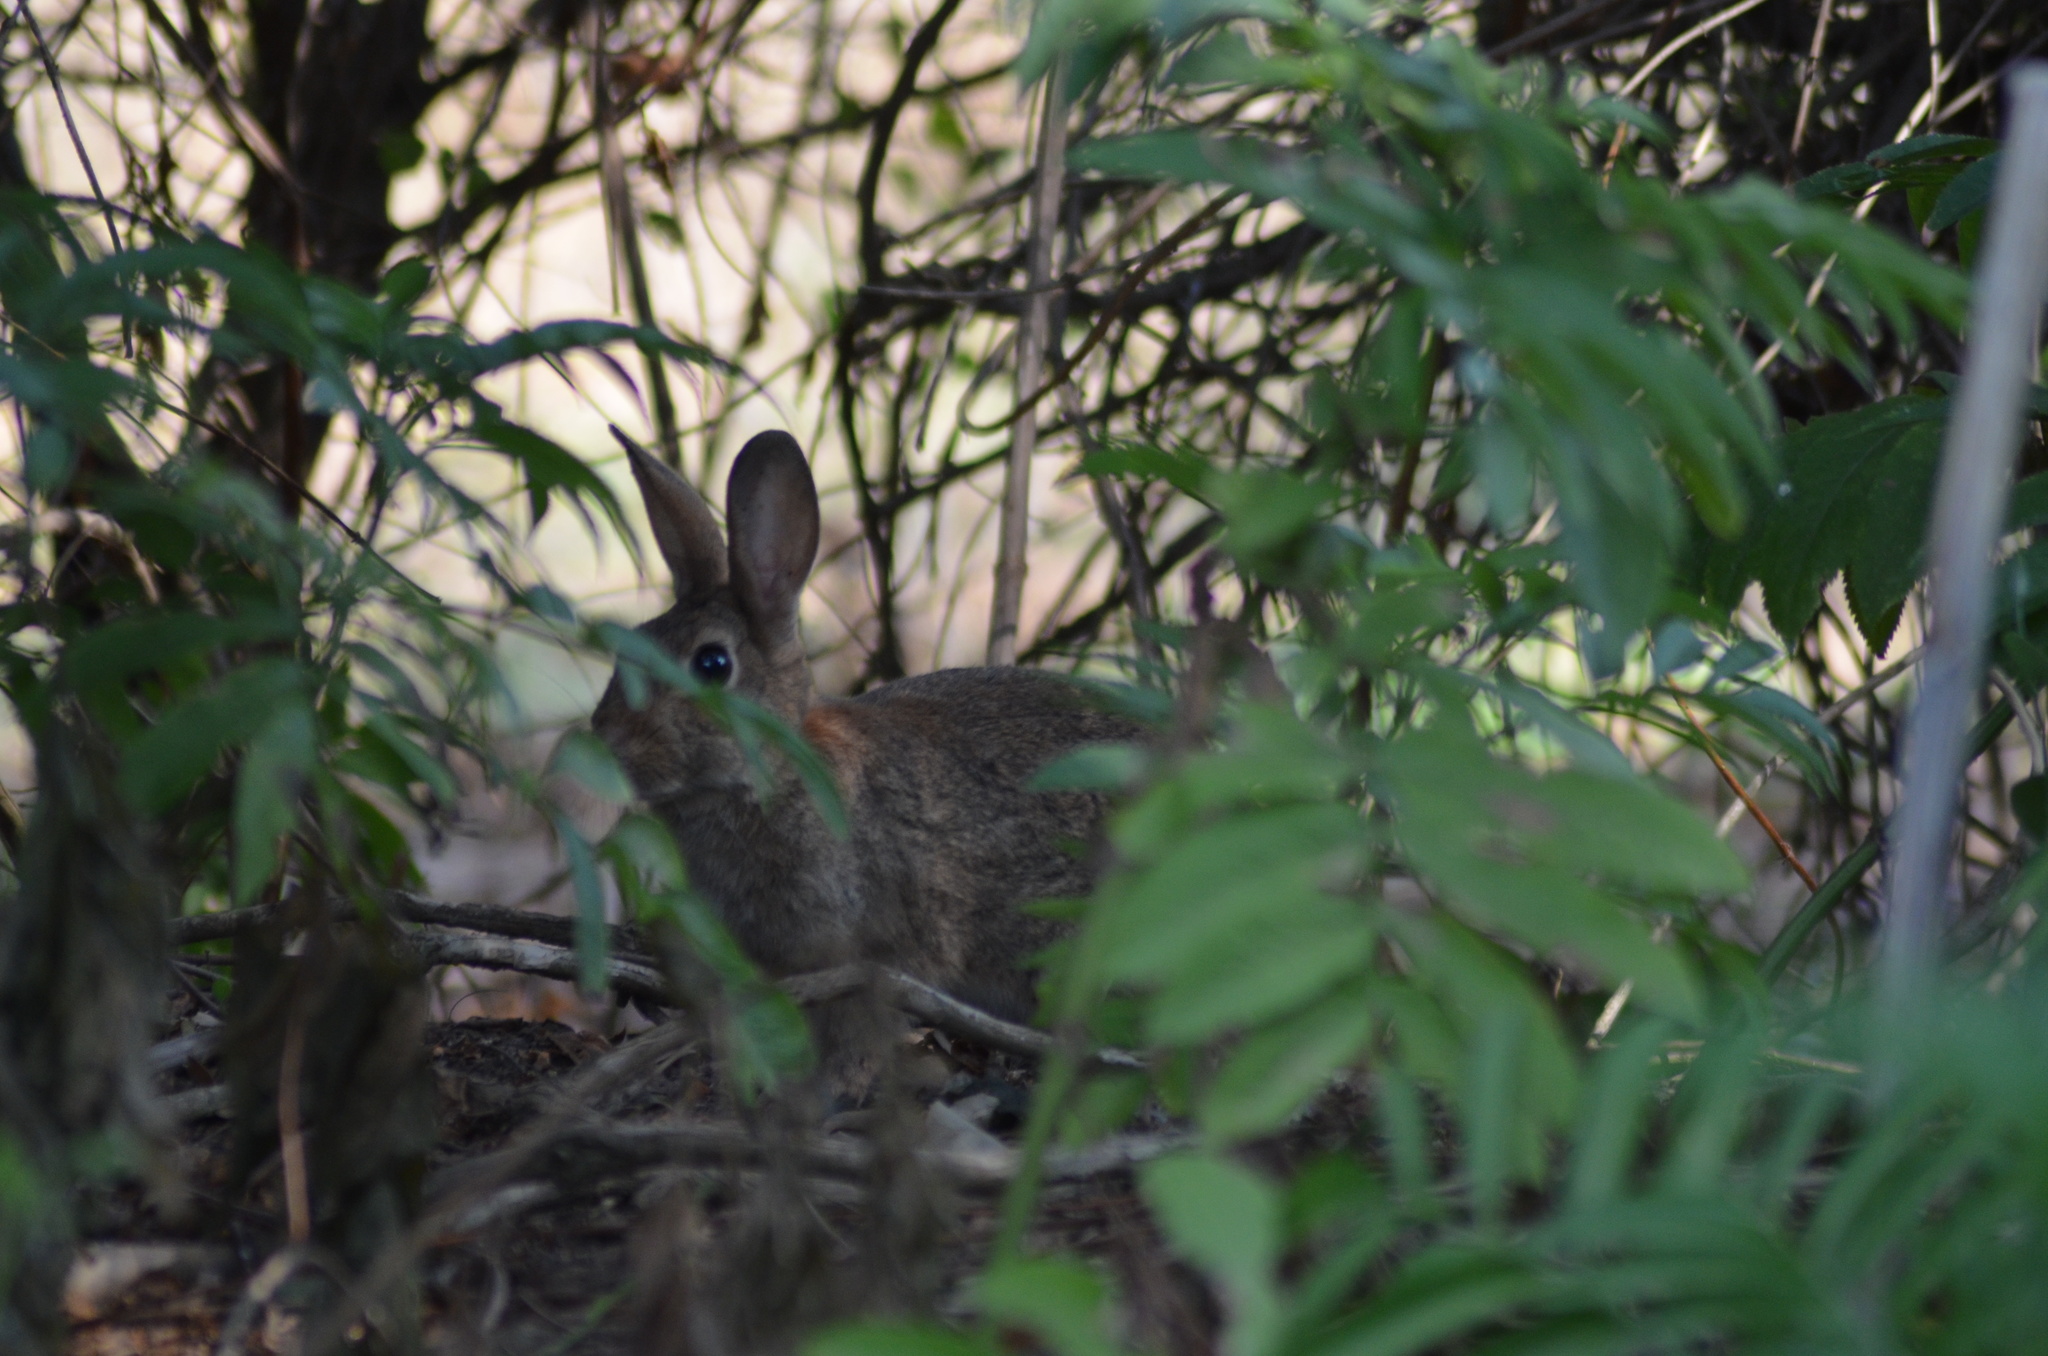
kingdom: Animalia
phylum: Chordata
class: Mammalia
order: Lagomorpha
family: Leporidae
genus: Oryctolagus
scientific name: Oryctolagus cuniculus
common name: European rabbit
